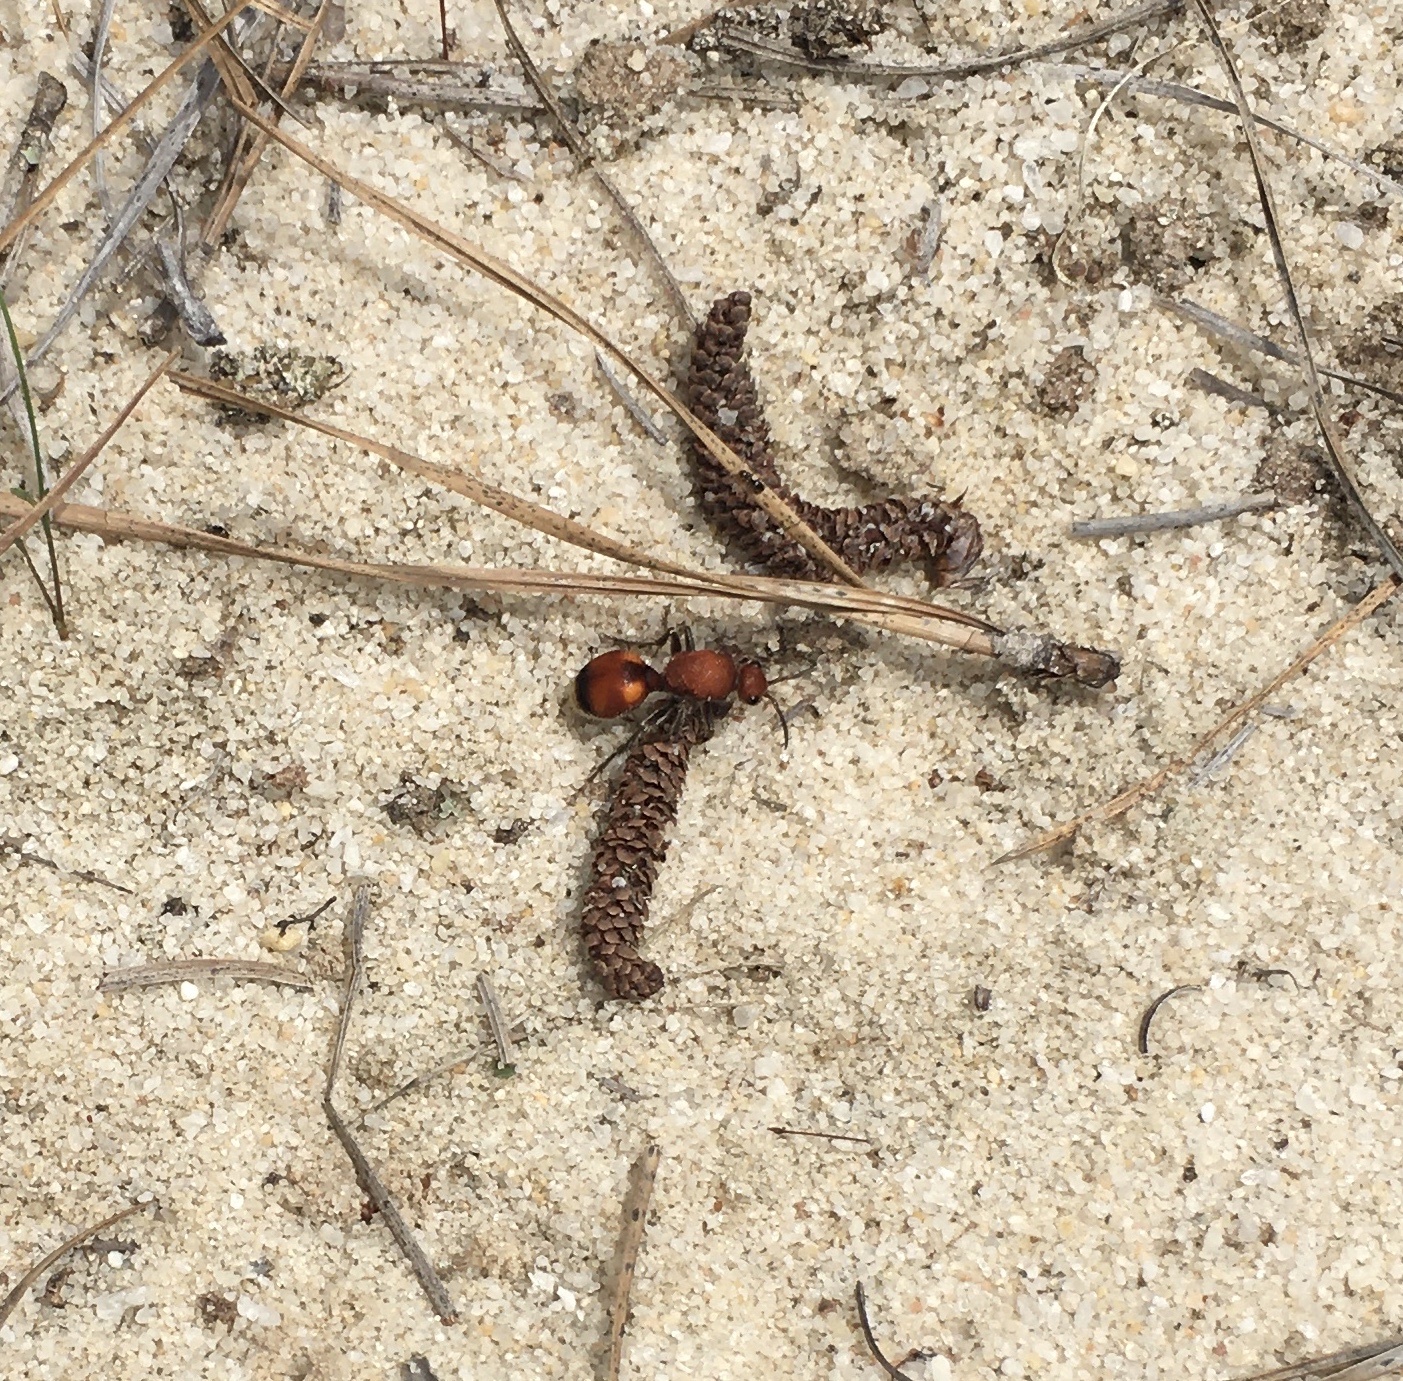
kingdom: Animalia
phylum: Arthropoda
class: Insecta
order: Hymenoptera
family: Mutillidae
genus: Dasymutilla
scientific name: Dasymutilla
